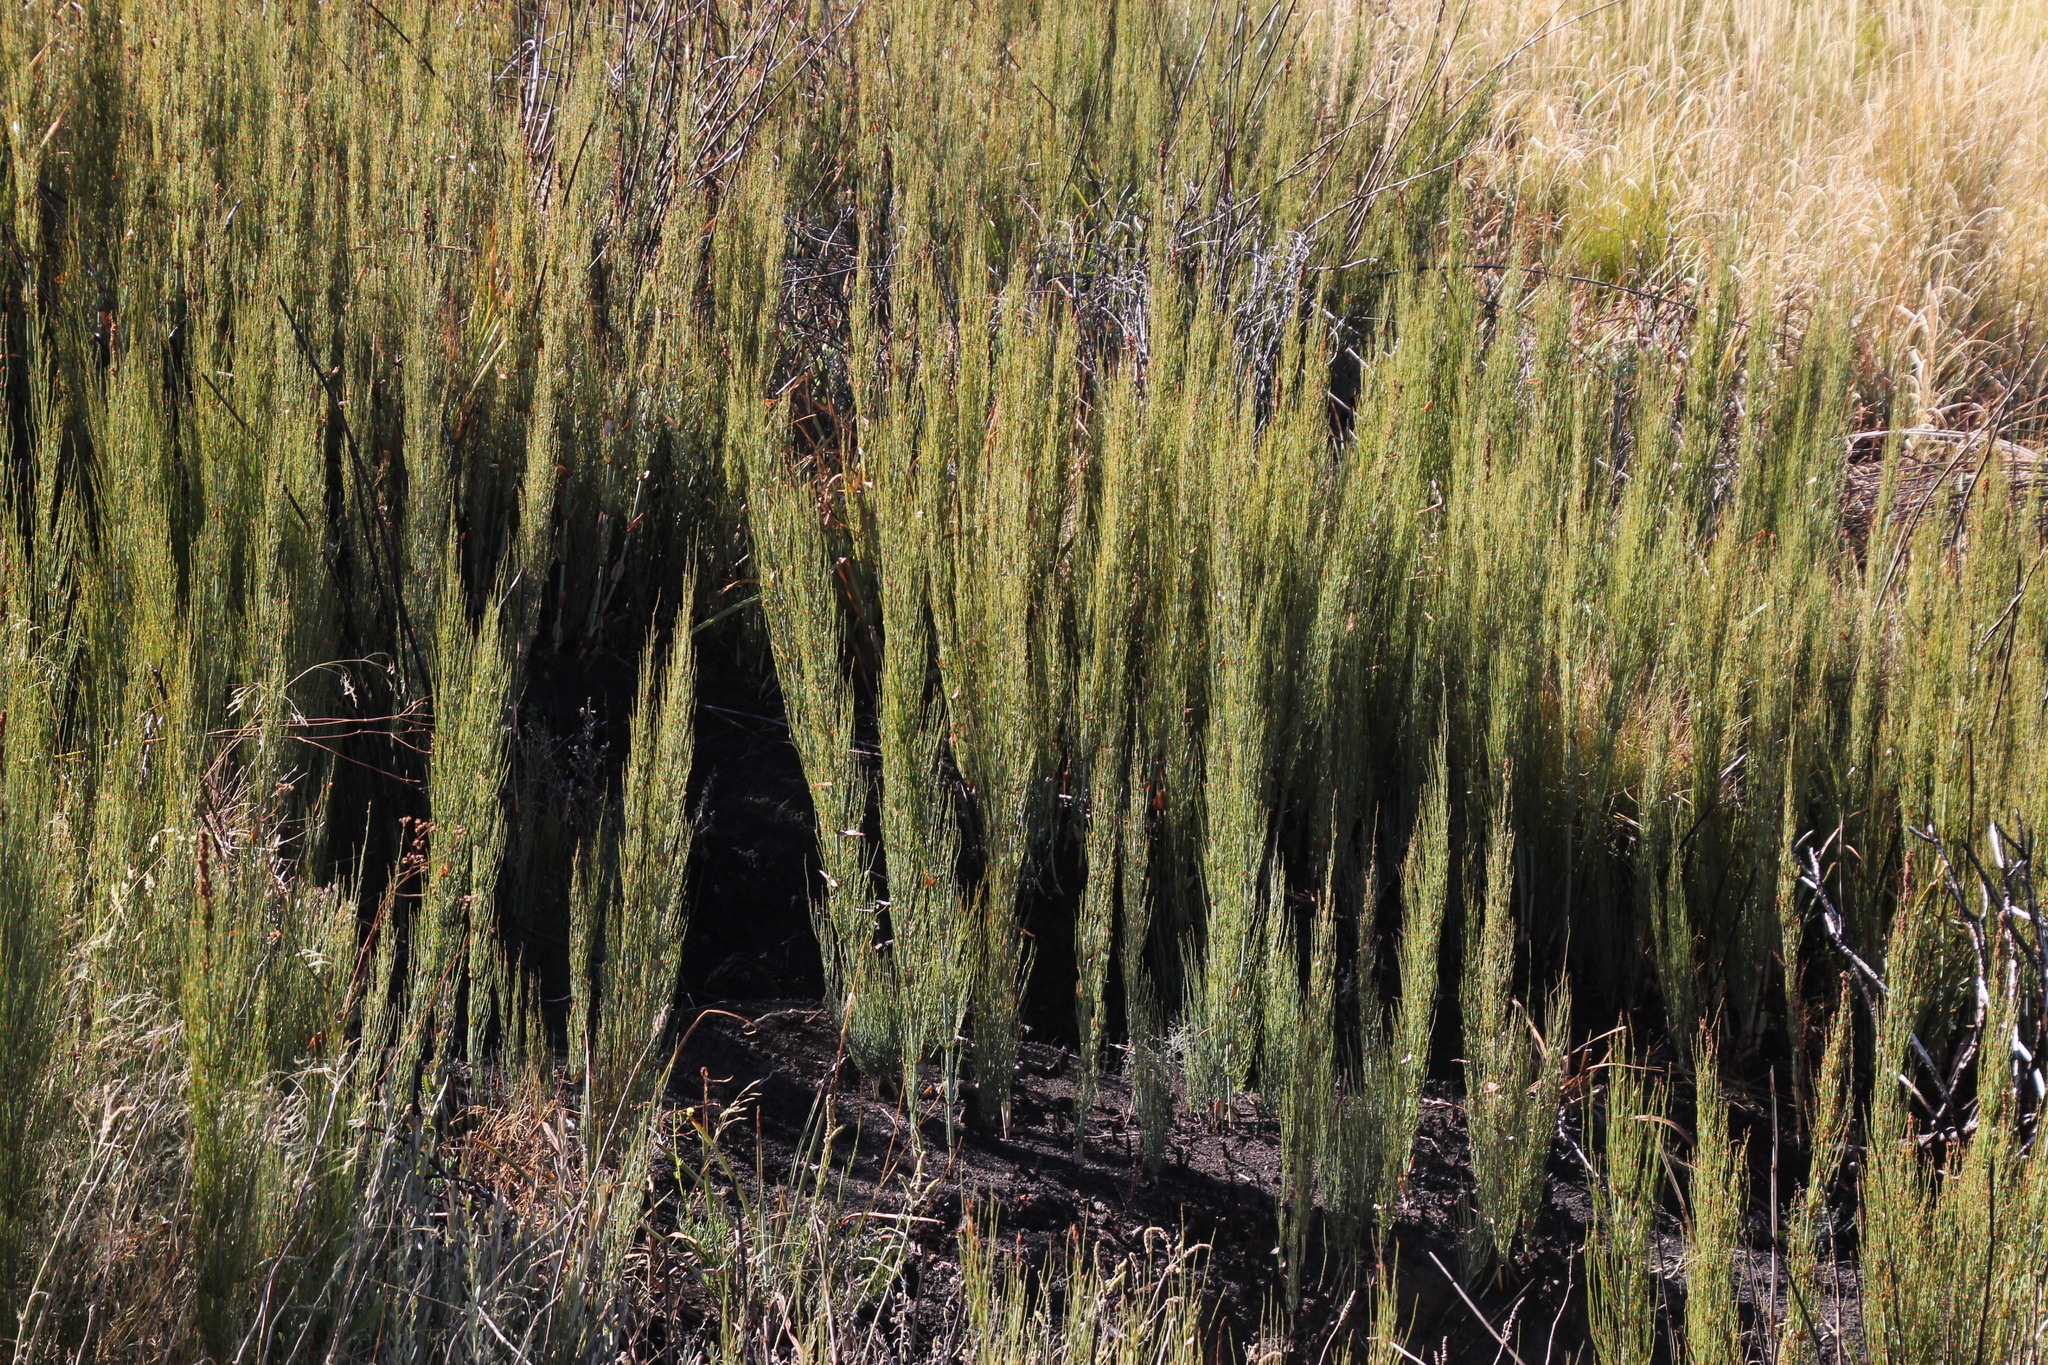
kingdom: Plantae
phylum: Tracheophyta
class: Liliopsida
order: Poales
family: Restionaceae
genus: Elegia
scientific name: Elegia capensis
